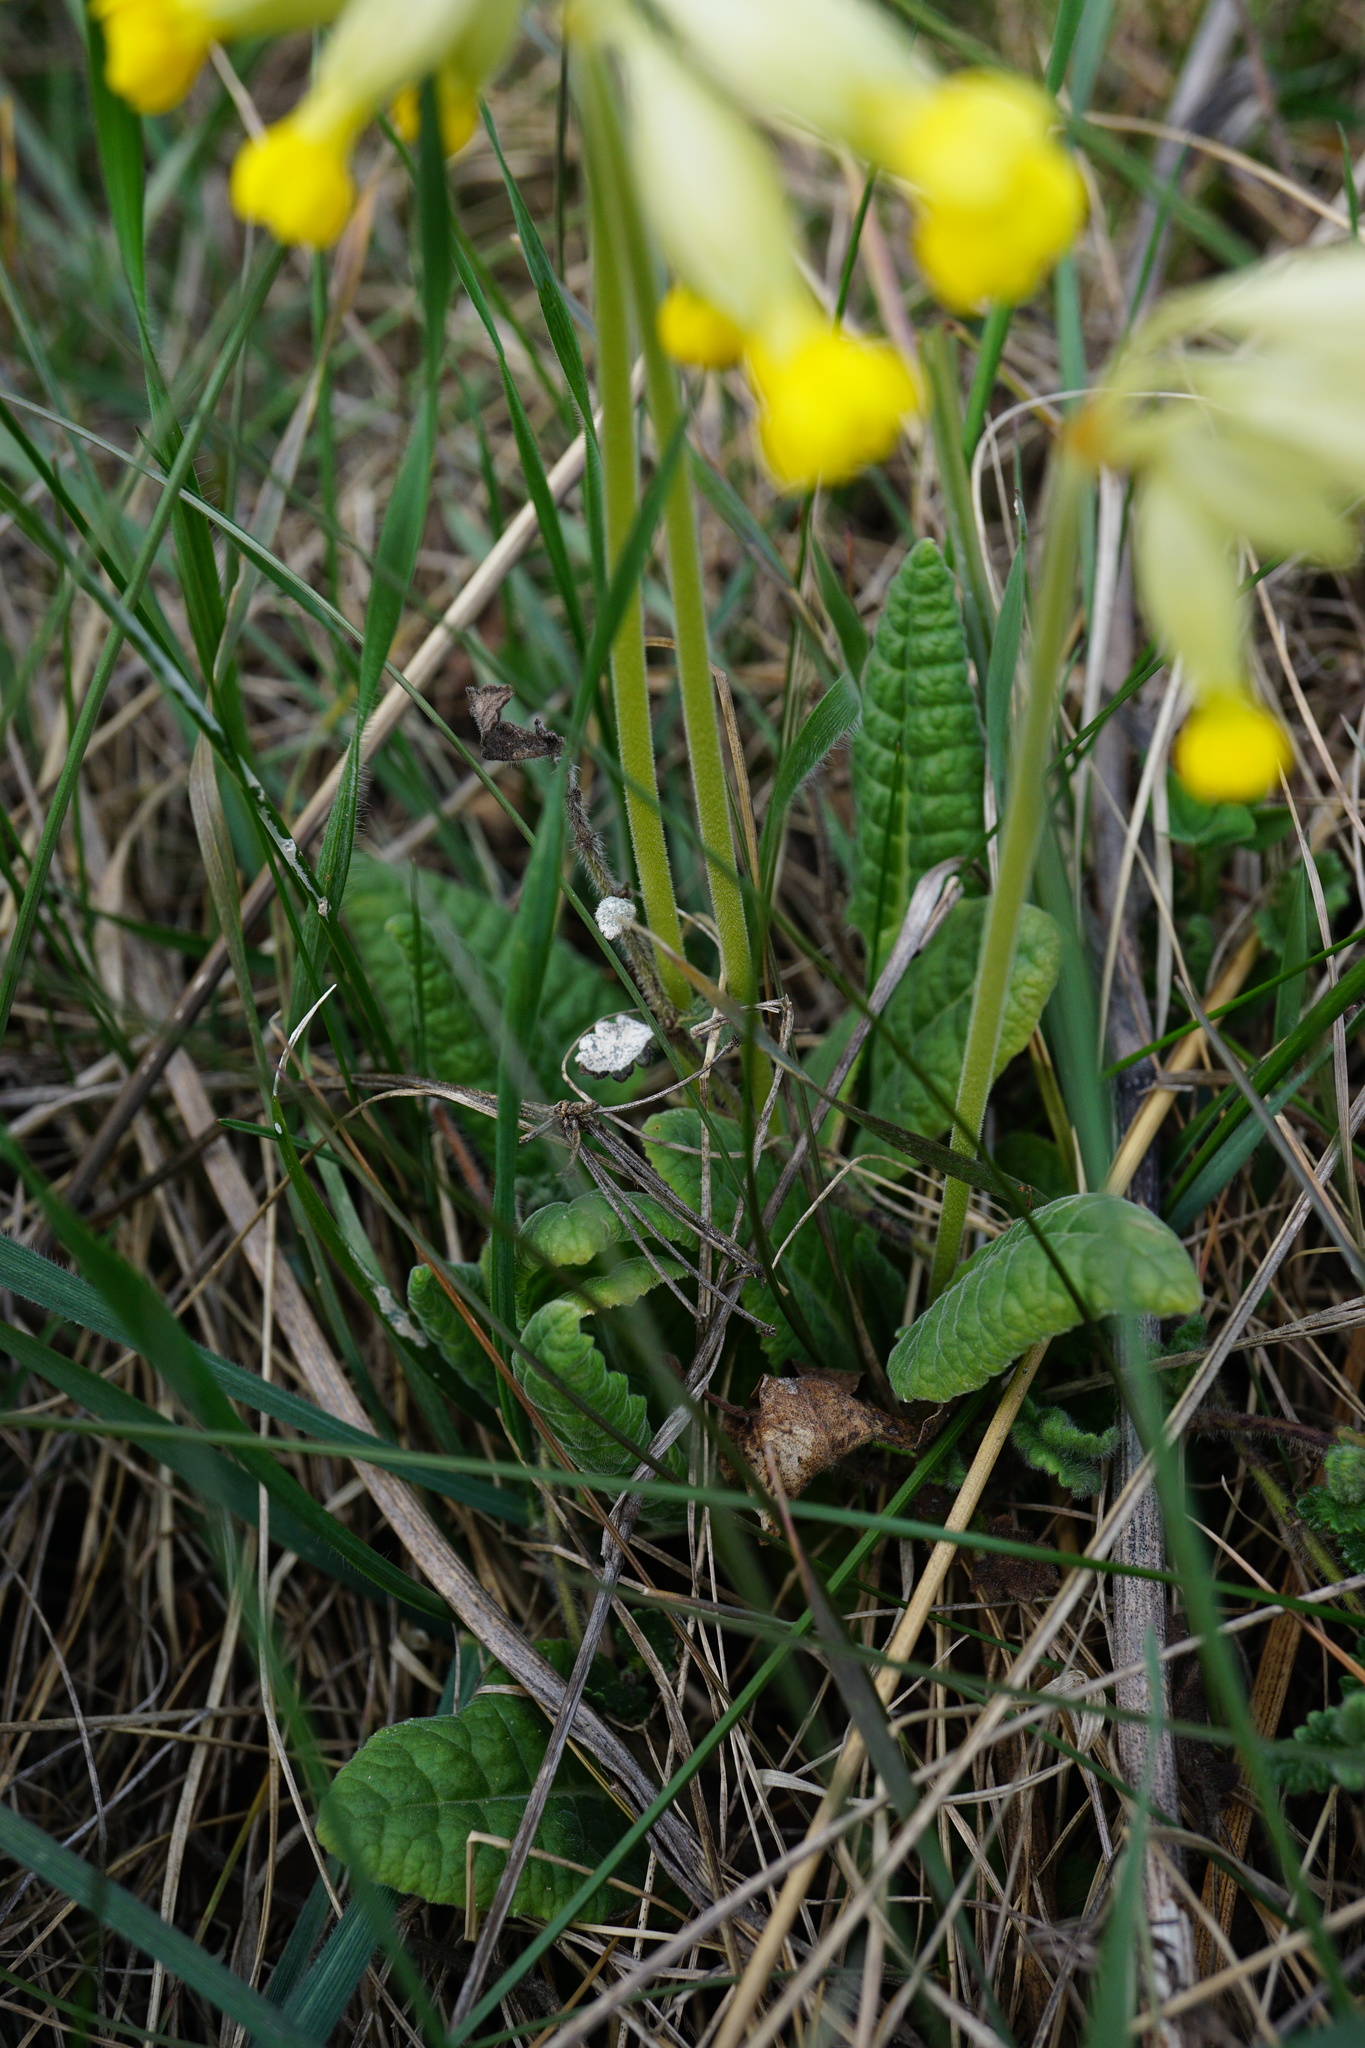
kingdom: Plantae
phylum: Tracheophyta
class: Magnoliopsida
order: Ericales
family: Primulaceae
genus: Primula
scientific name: Primula veris
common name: Cowslip
